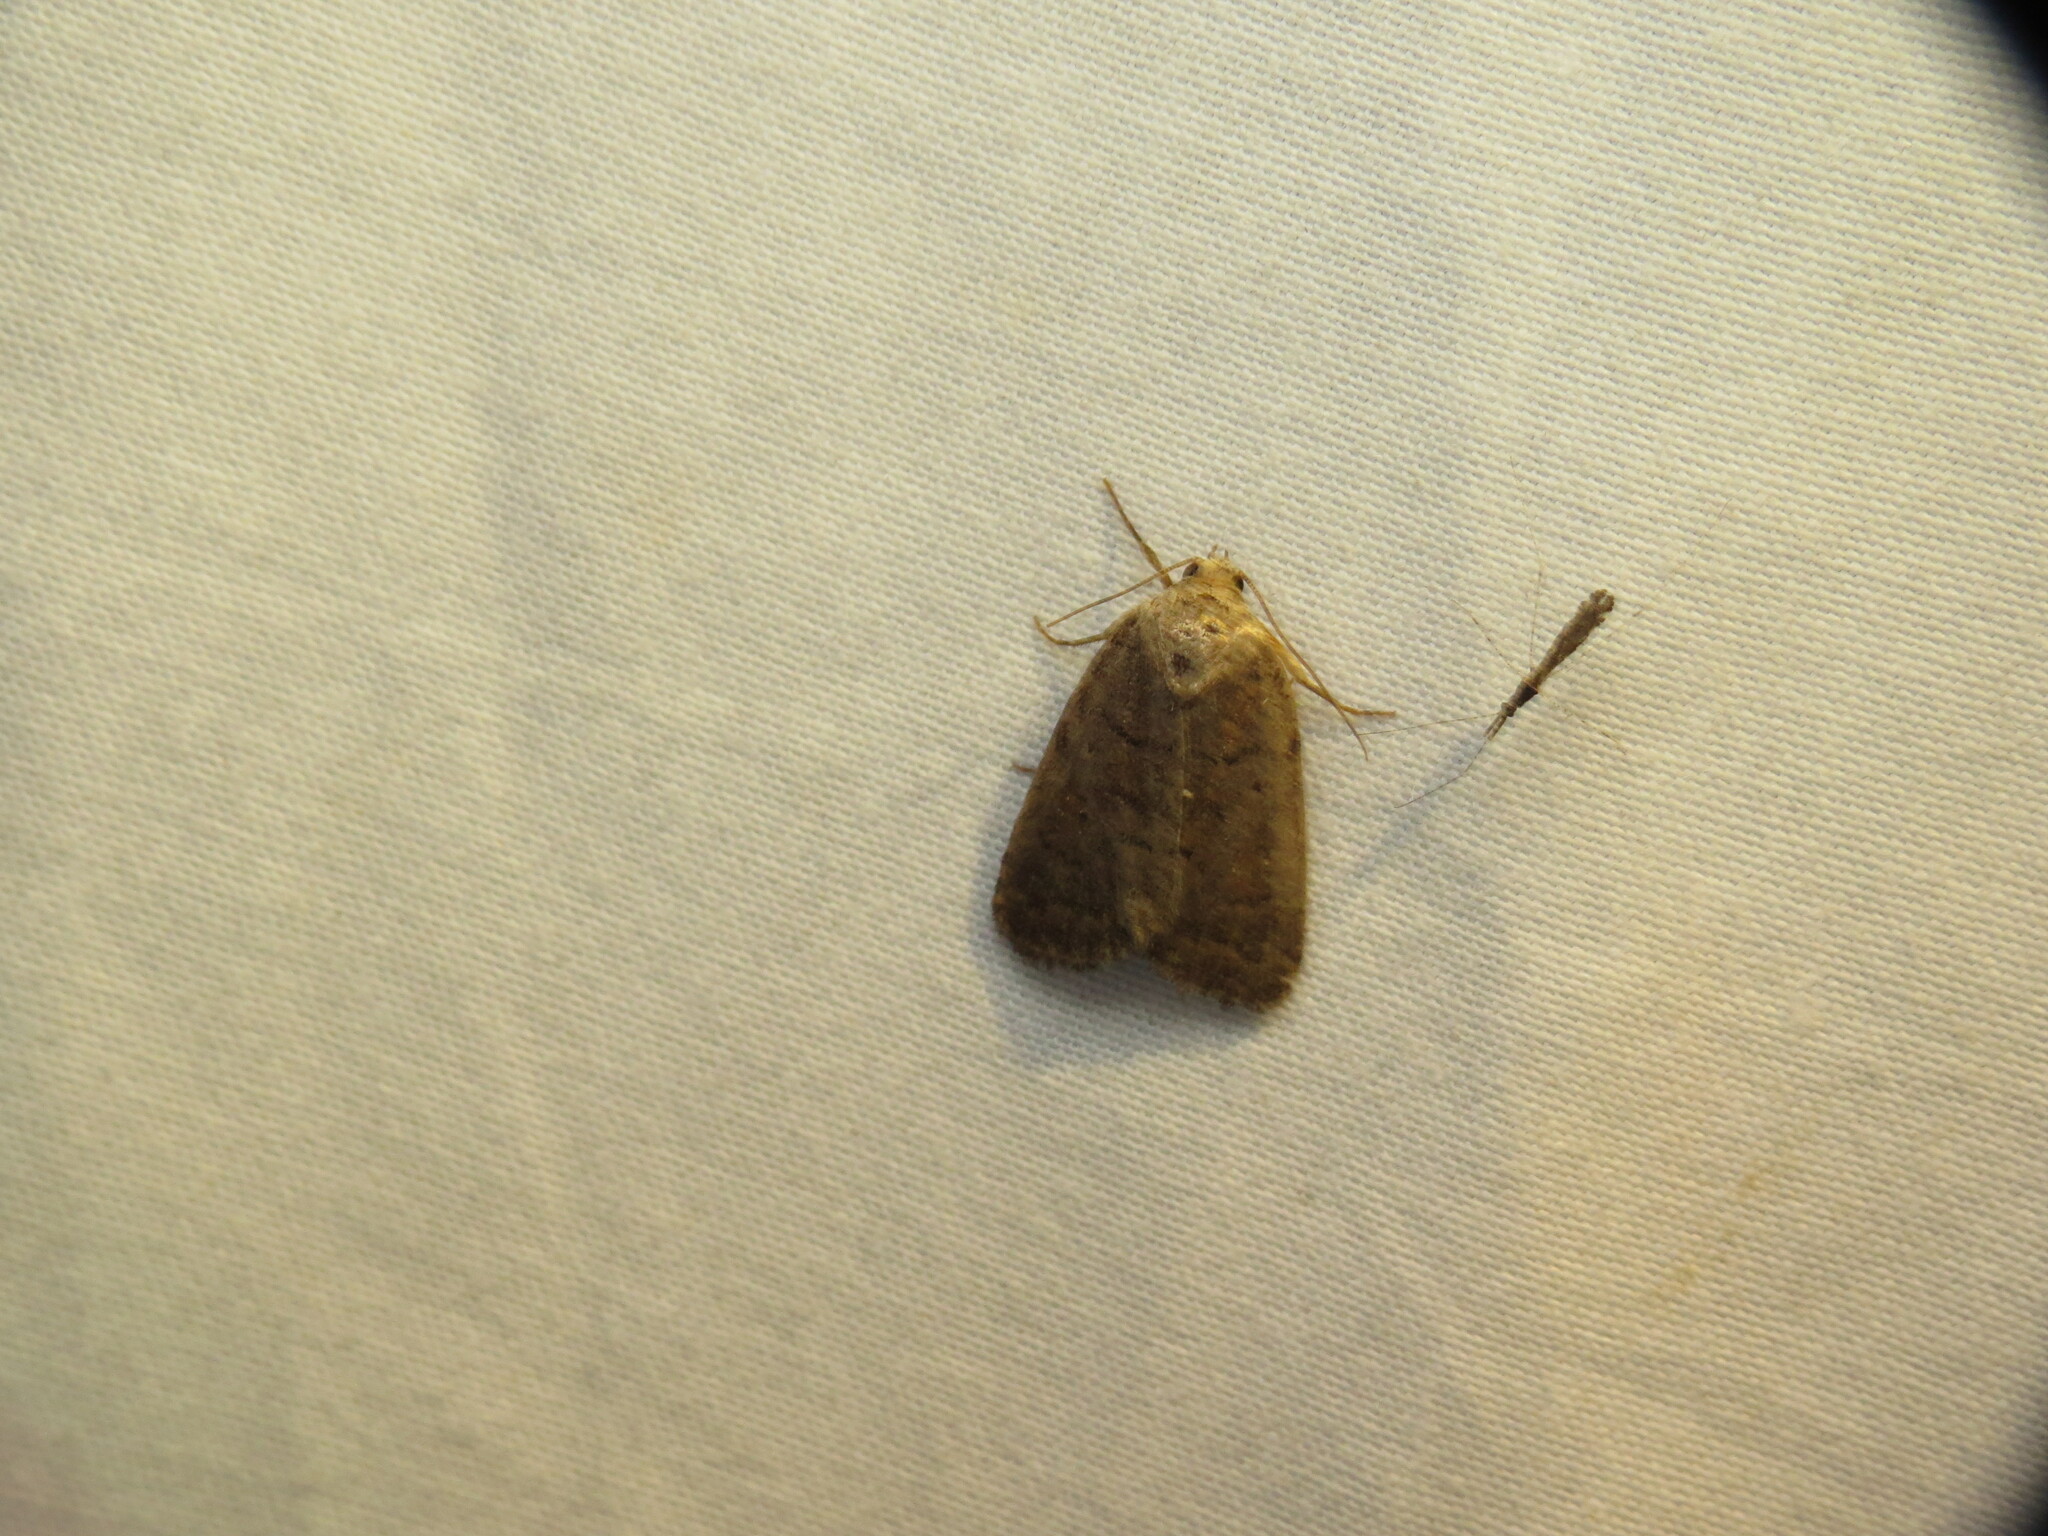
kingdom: Animalia
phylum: Arthropoda
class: Insecta
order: Lepidoptera
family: Noctuidae
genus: Athetis
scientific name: Athetis tarda
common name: Slowpoke moth
